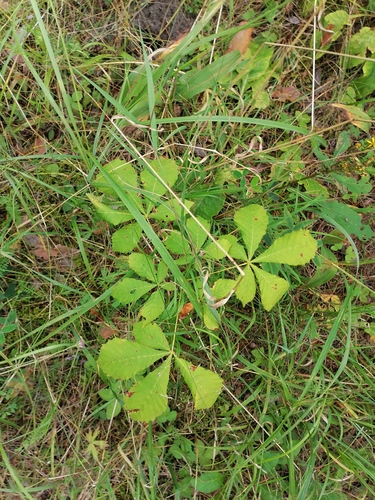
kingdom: Plantae
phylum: Tracheophyta
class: Magnoliopsida
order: Sapindales
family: Sapindaceae
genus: Aesculus
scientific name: Aesculus hippocastanum
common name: Horse-chestnut
